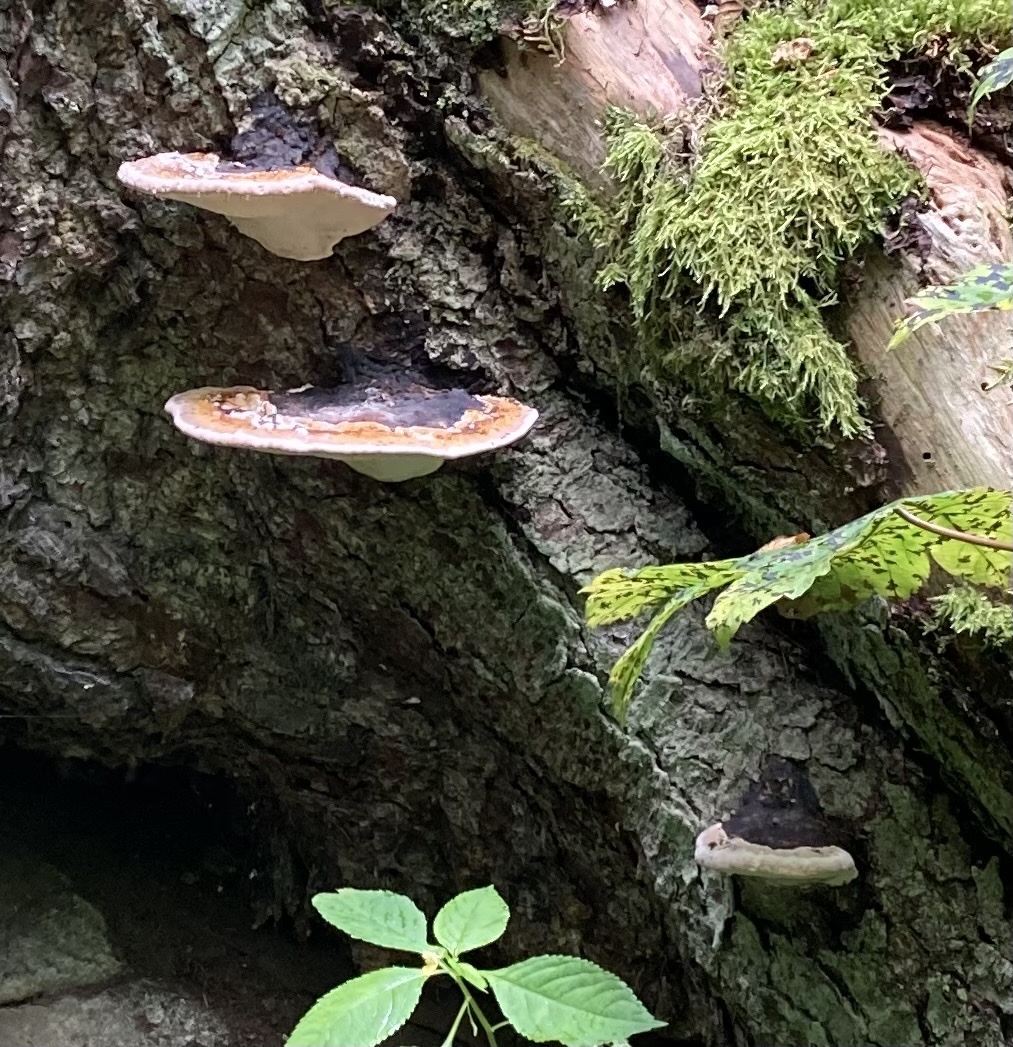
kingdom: Fungi
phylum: Basidiomycota
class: Agaricomycetes
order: Polyporales
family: Fomitopsidaceae
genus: Fomitopsis
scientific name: Fomitopsis pinicola
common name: Red-belted bracket
